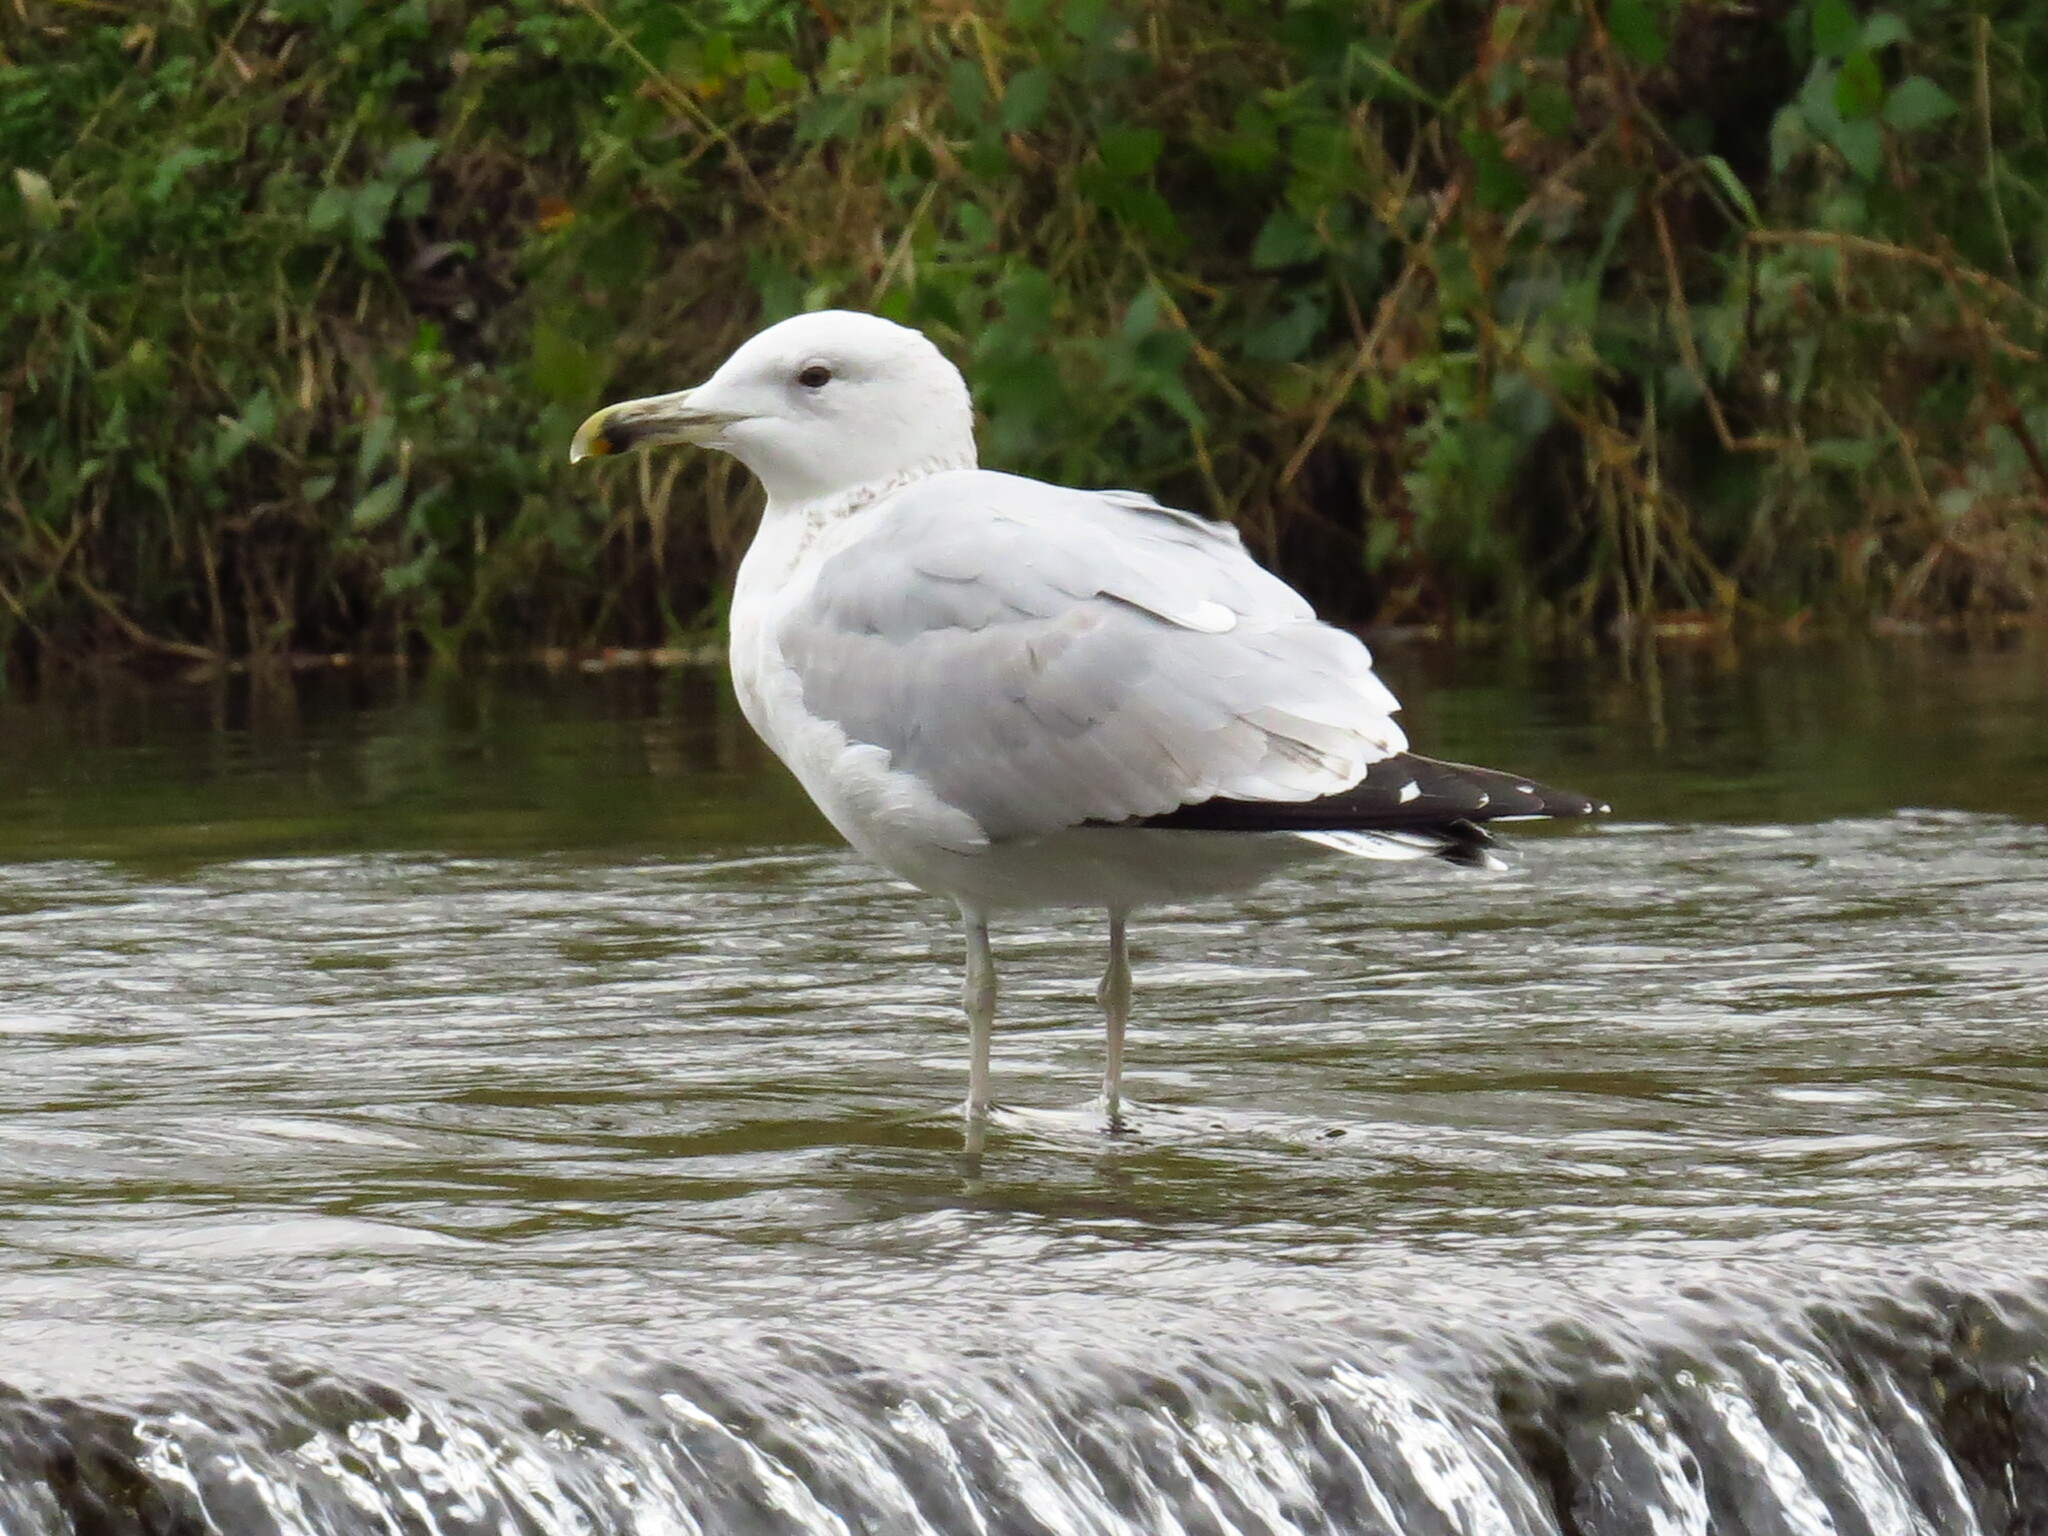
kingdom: Animalia
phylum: Chordata
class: Aves
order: Charadriiformes
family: Laridae
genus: Larus
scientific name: Larus cachinnans
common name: Caspian gull
